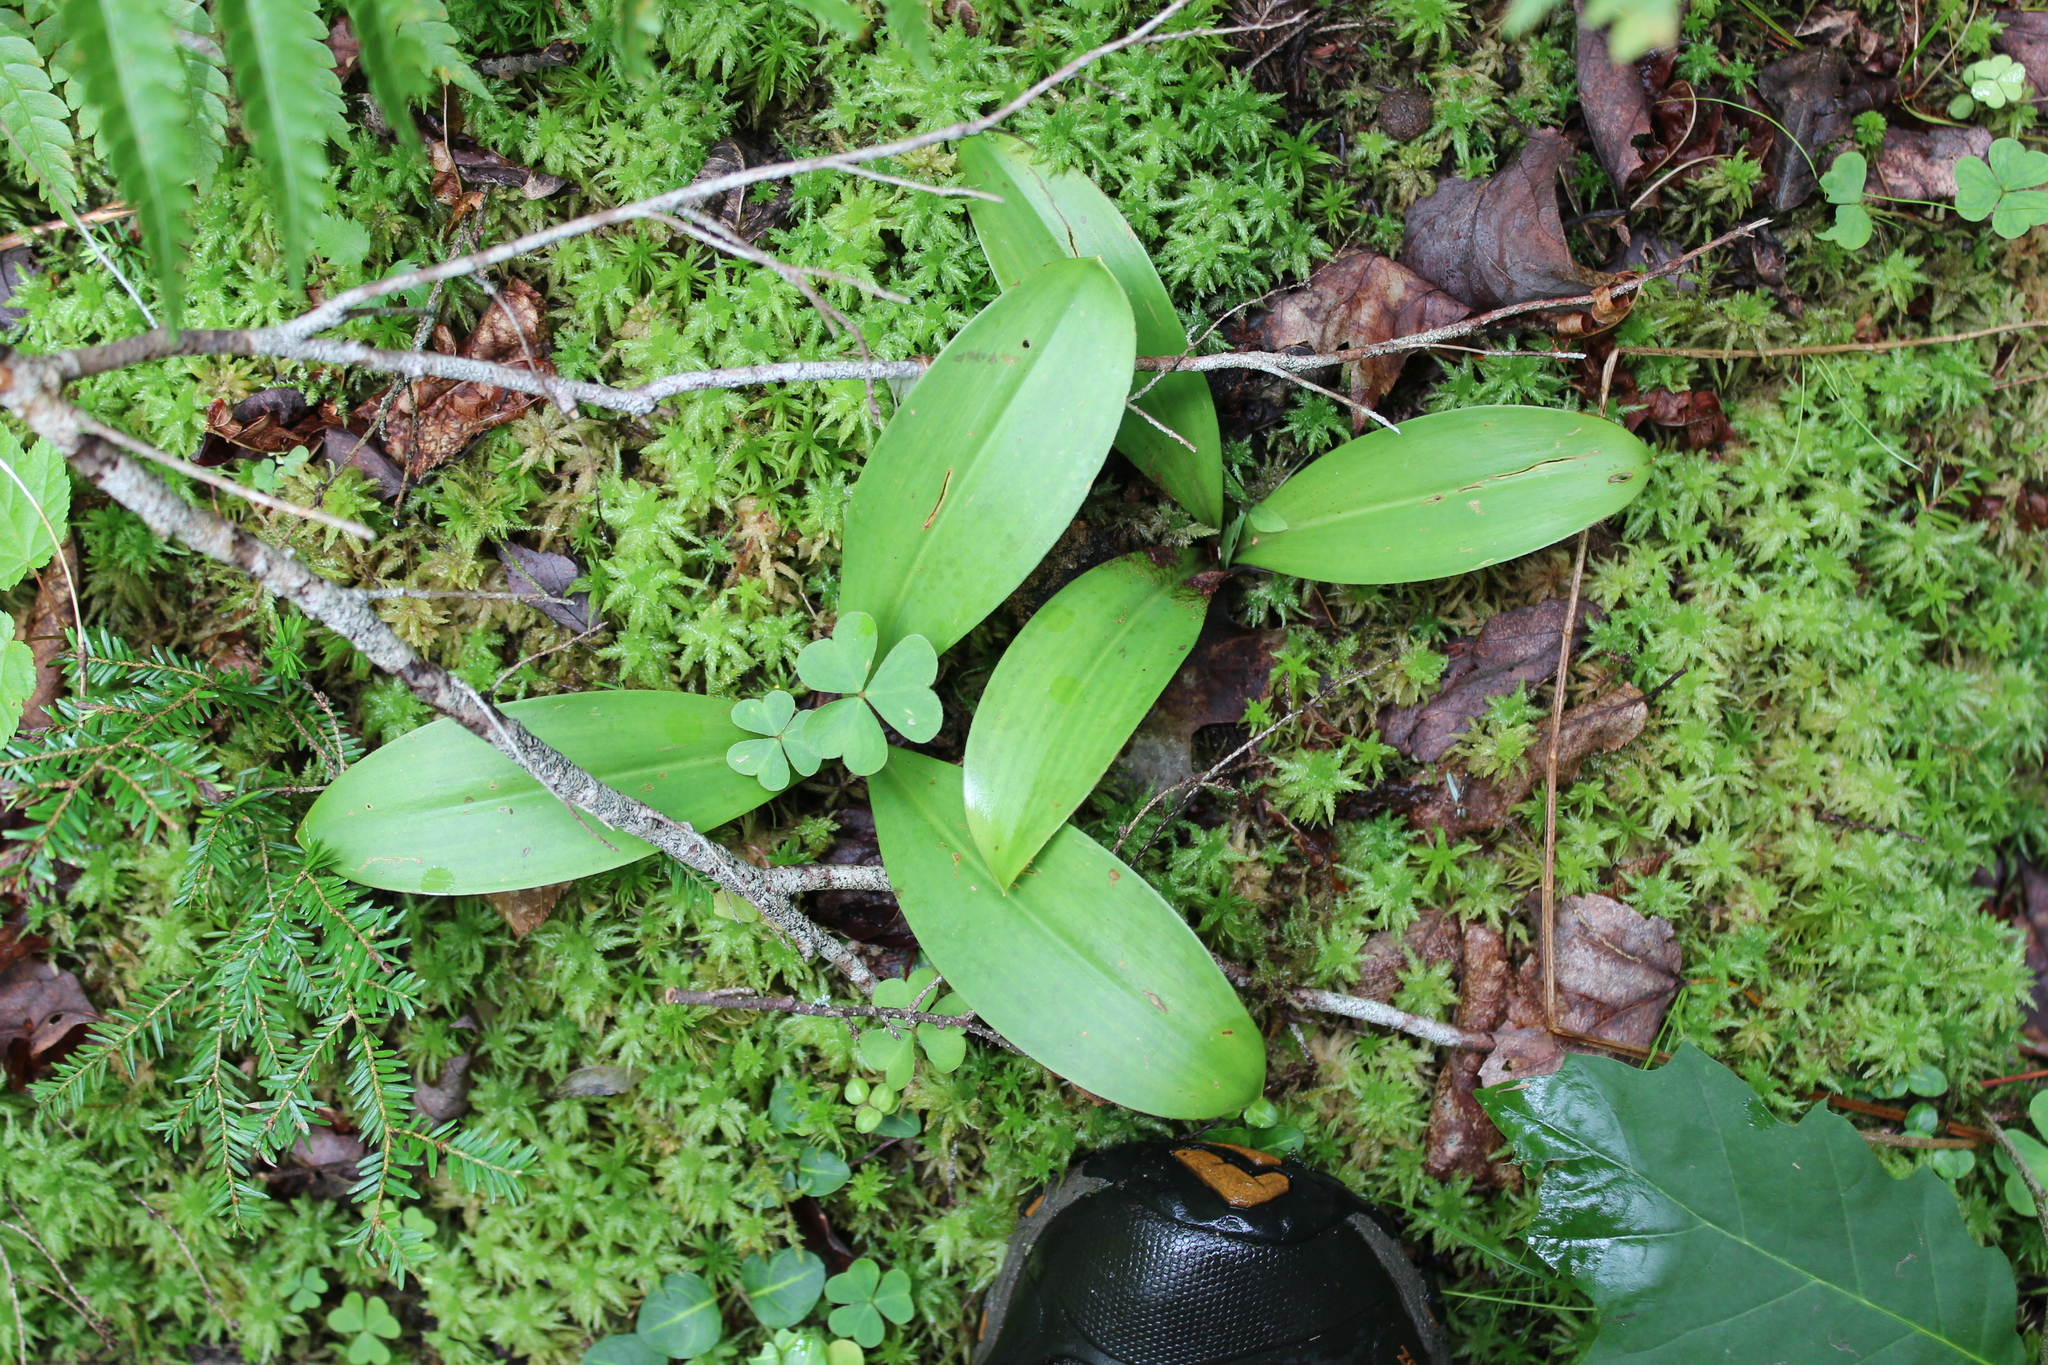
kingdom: Plantae
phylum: Tracheophyta
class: Liliopsida
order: Liliales
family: Liliaceae
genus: Clintonia
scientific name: Clintonia borealis
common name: Yellow clintonia
